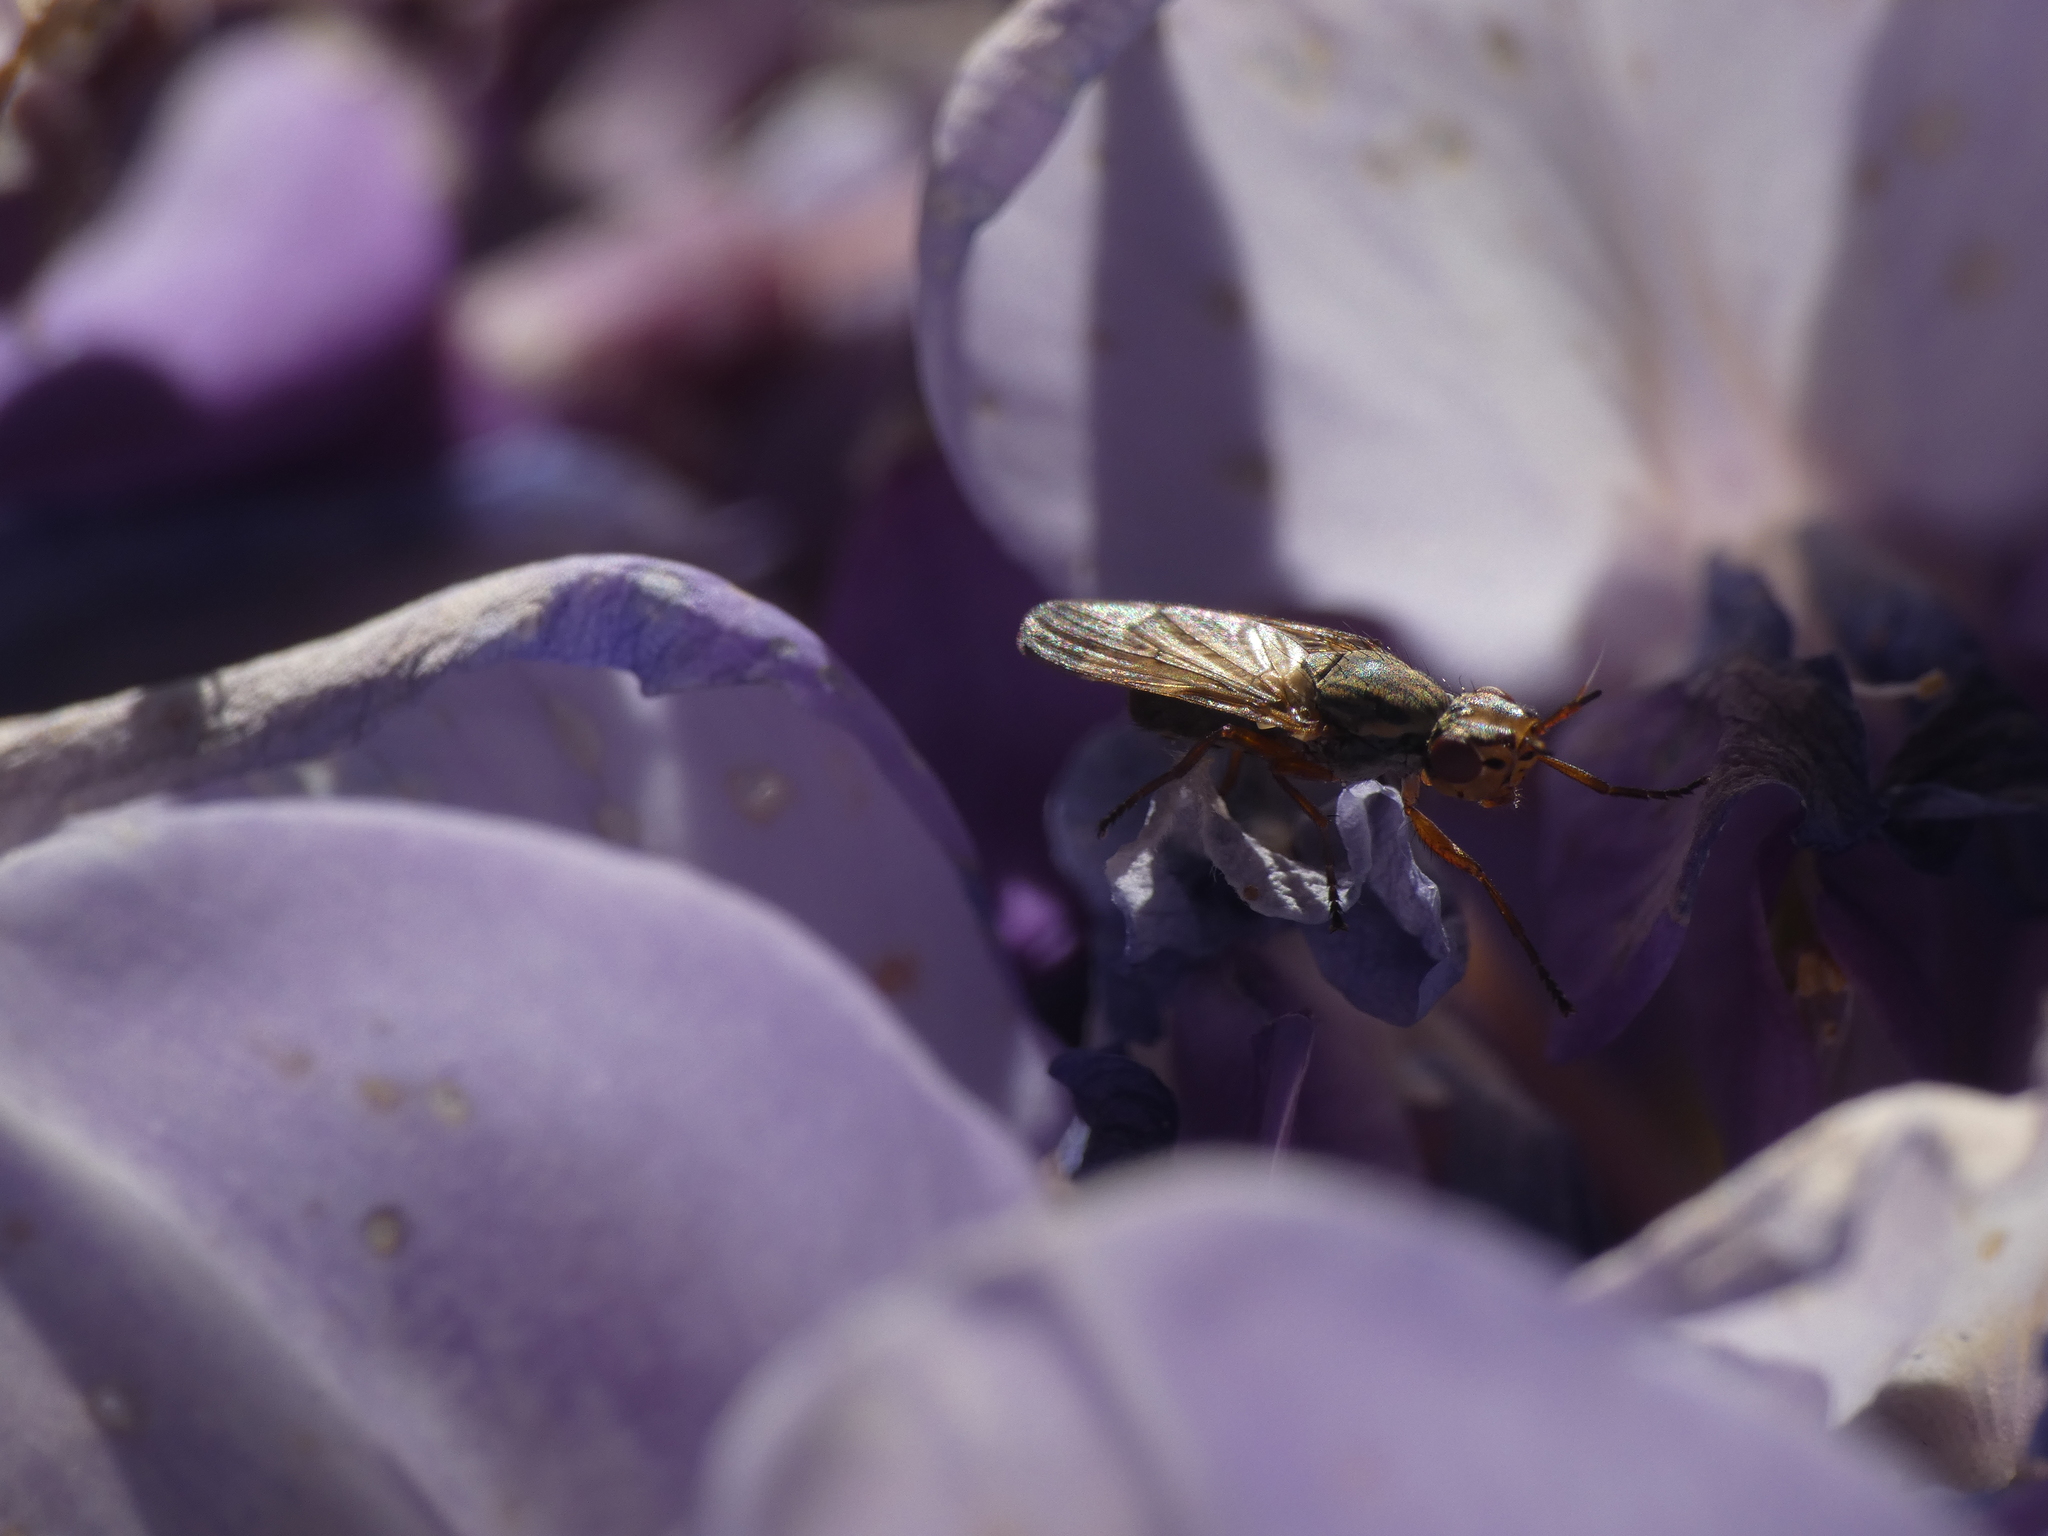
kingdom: Animalia
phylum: Arthropoda
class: Insecta
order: Diptera
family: Ulidiidae
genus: Dorycera
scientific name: Dorycera aquatica
